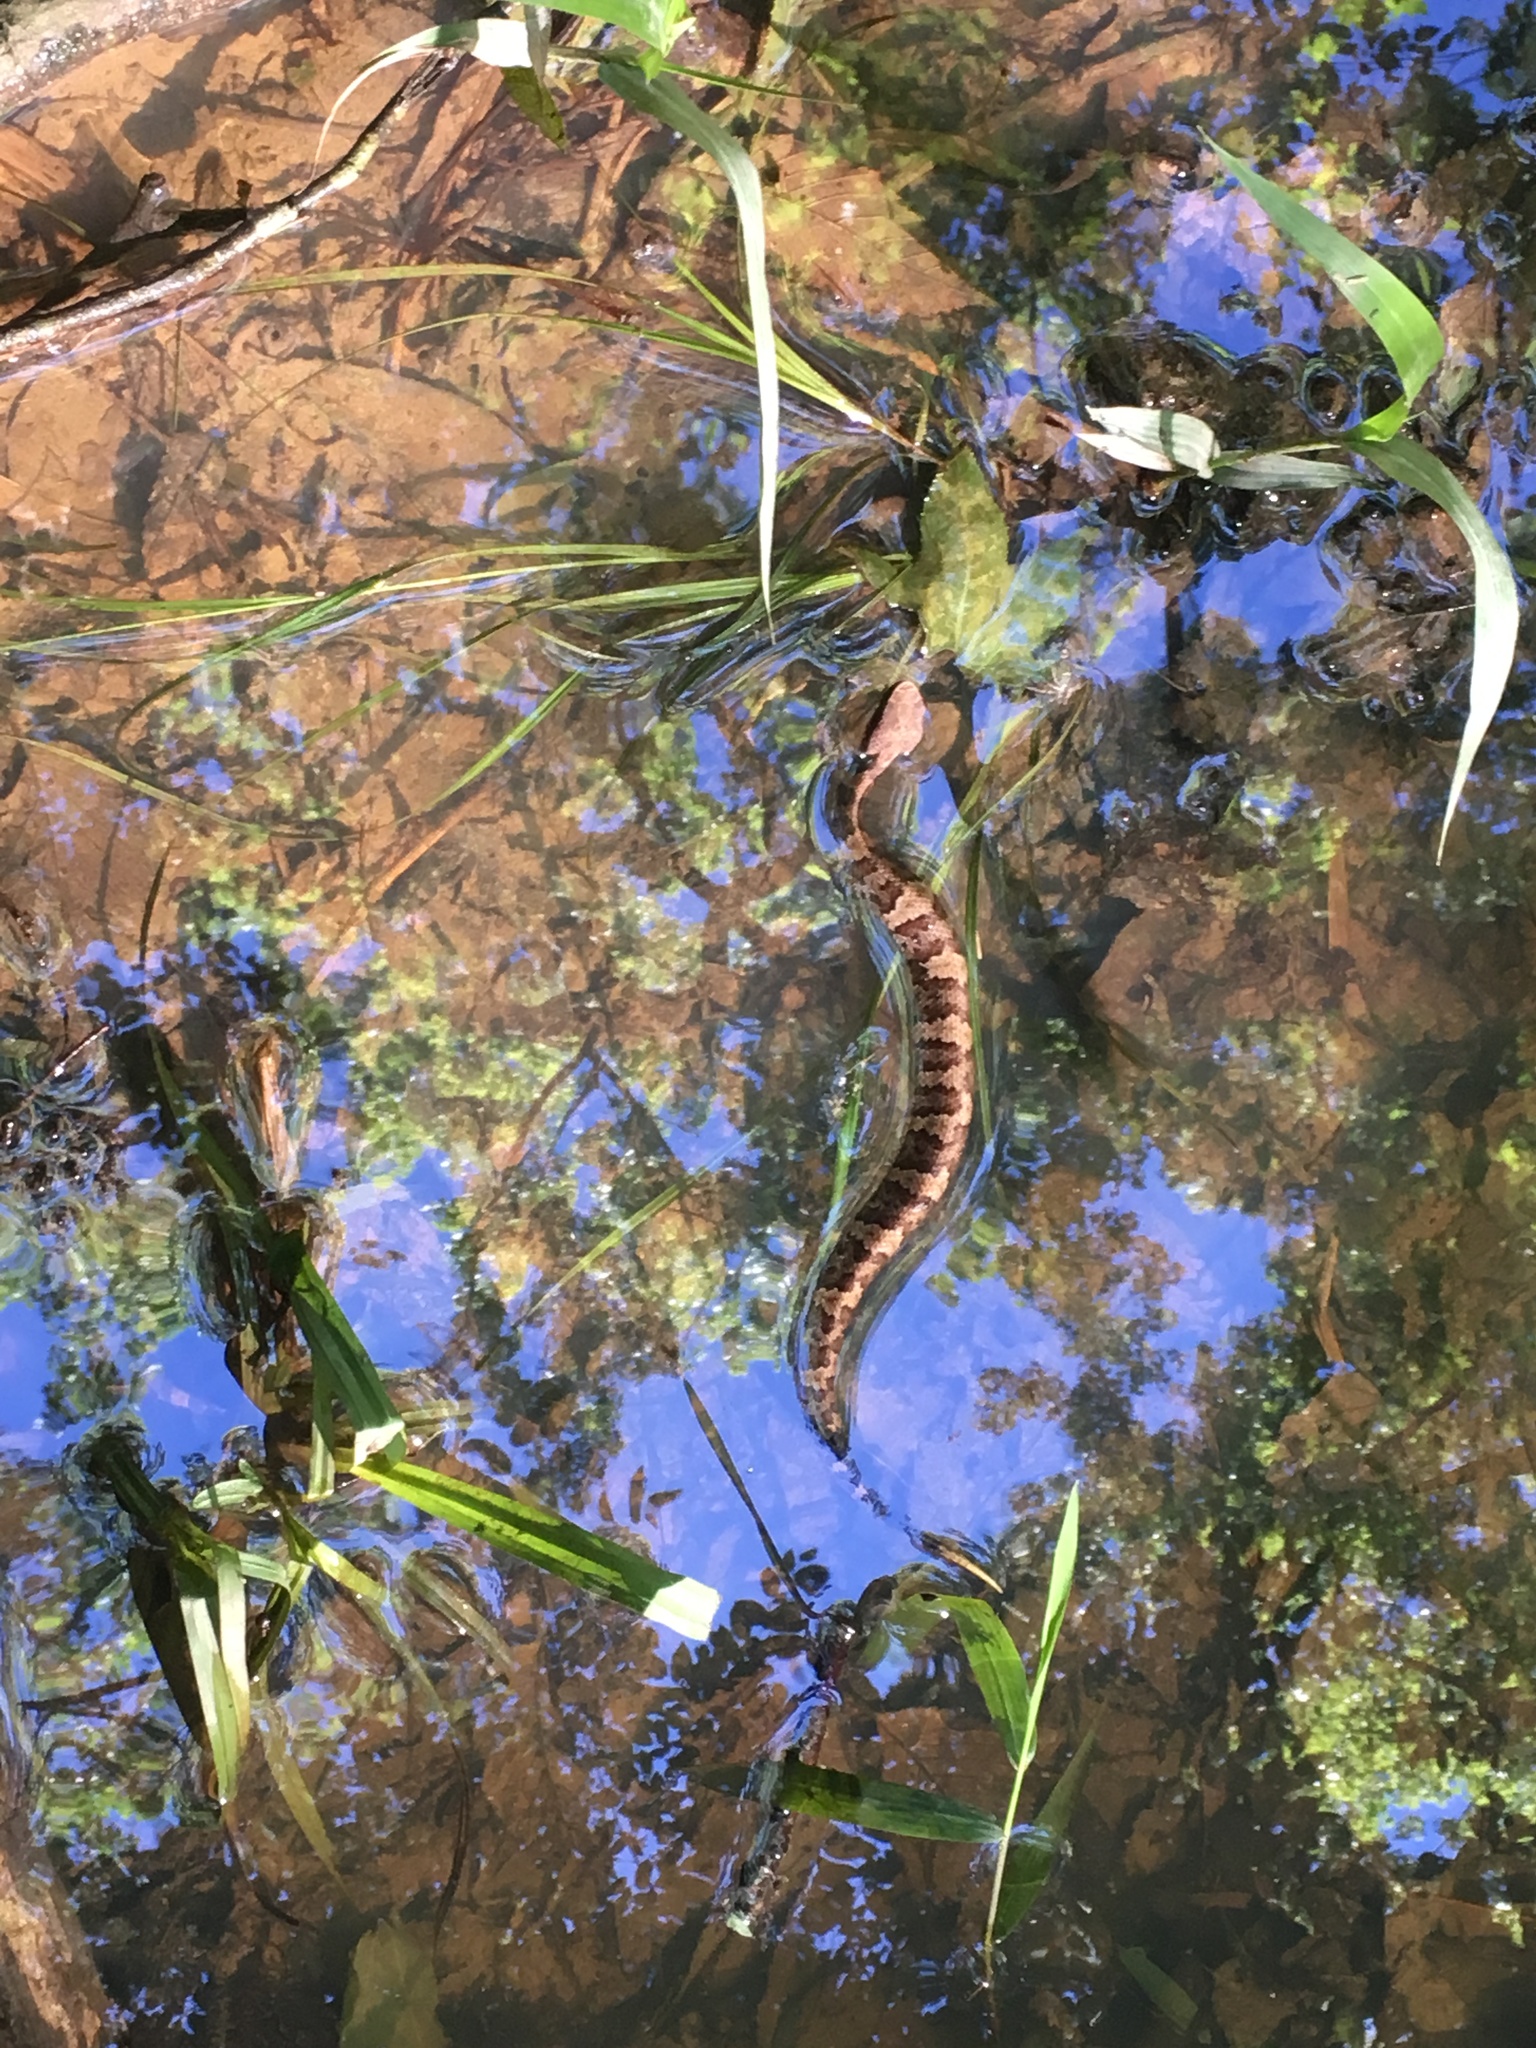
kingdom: Animalia
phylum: Chordata
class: Squamata
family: Viperidae
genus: Agkistrodon
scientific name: Agkistrodon piscivorus
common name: Cottonmouth
